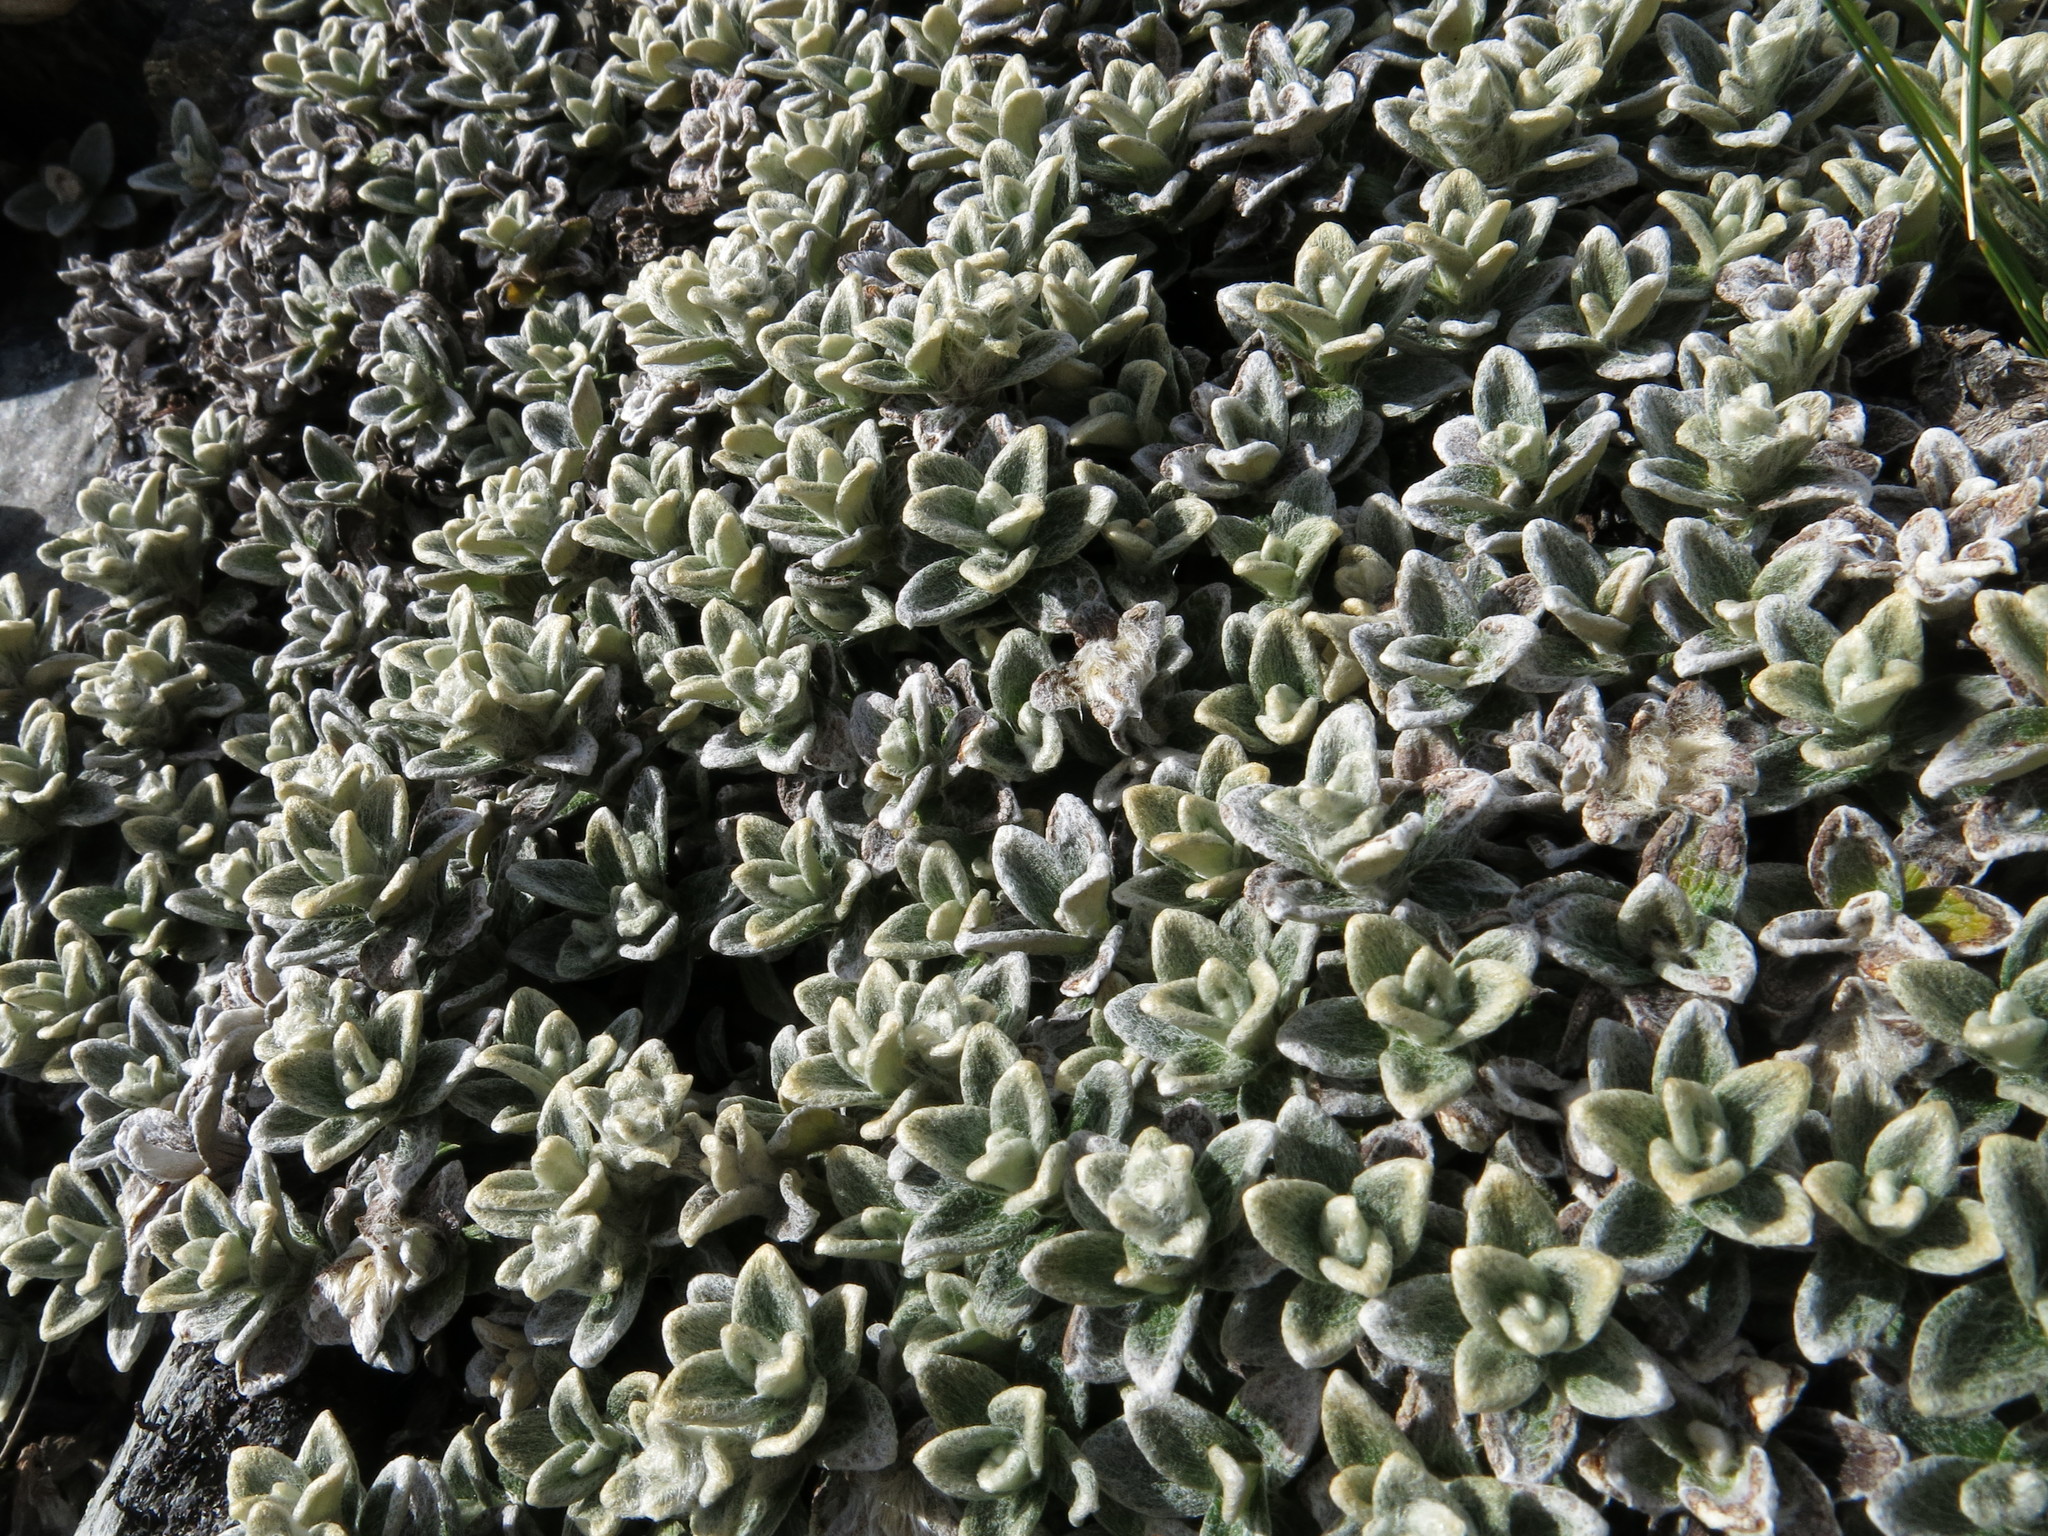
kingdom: Plantae
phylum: Tracheophyta
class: Magnoliopsida
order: Asterales
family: Asteraceae
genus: Haastia
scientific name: Haastia sinclairii
